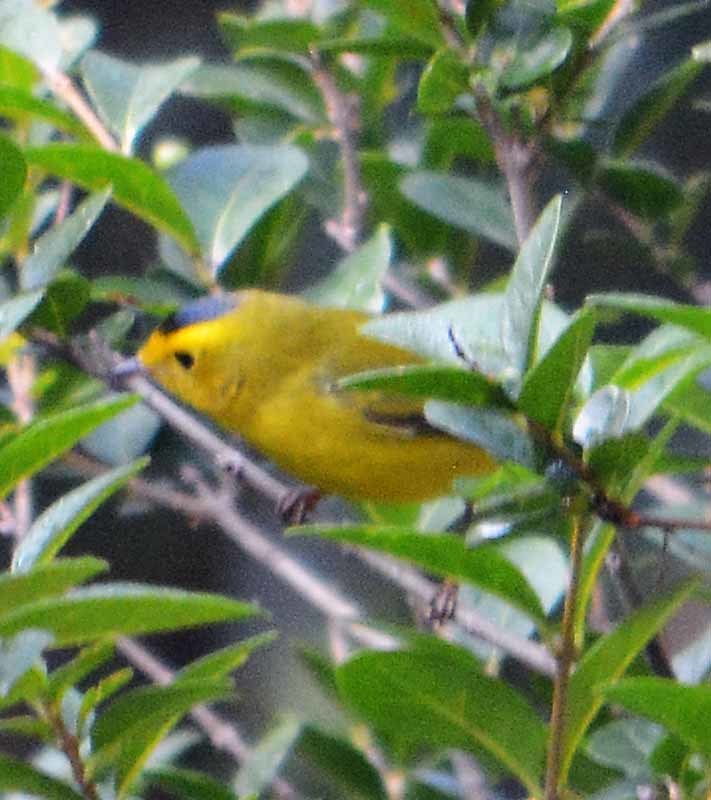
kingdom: Animalia
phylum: Chordata
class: Aves
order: Passeriformes
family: Parulidae
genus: Cardellina
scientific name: Cardellina pusilla
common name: Wilson's warbler
